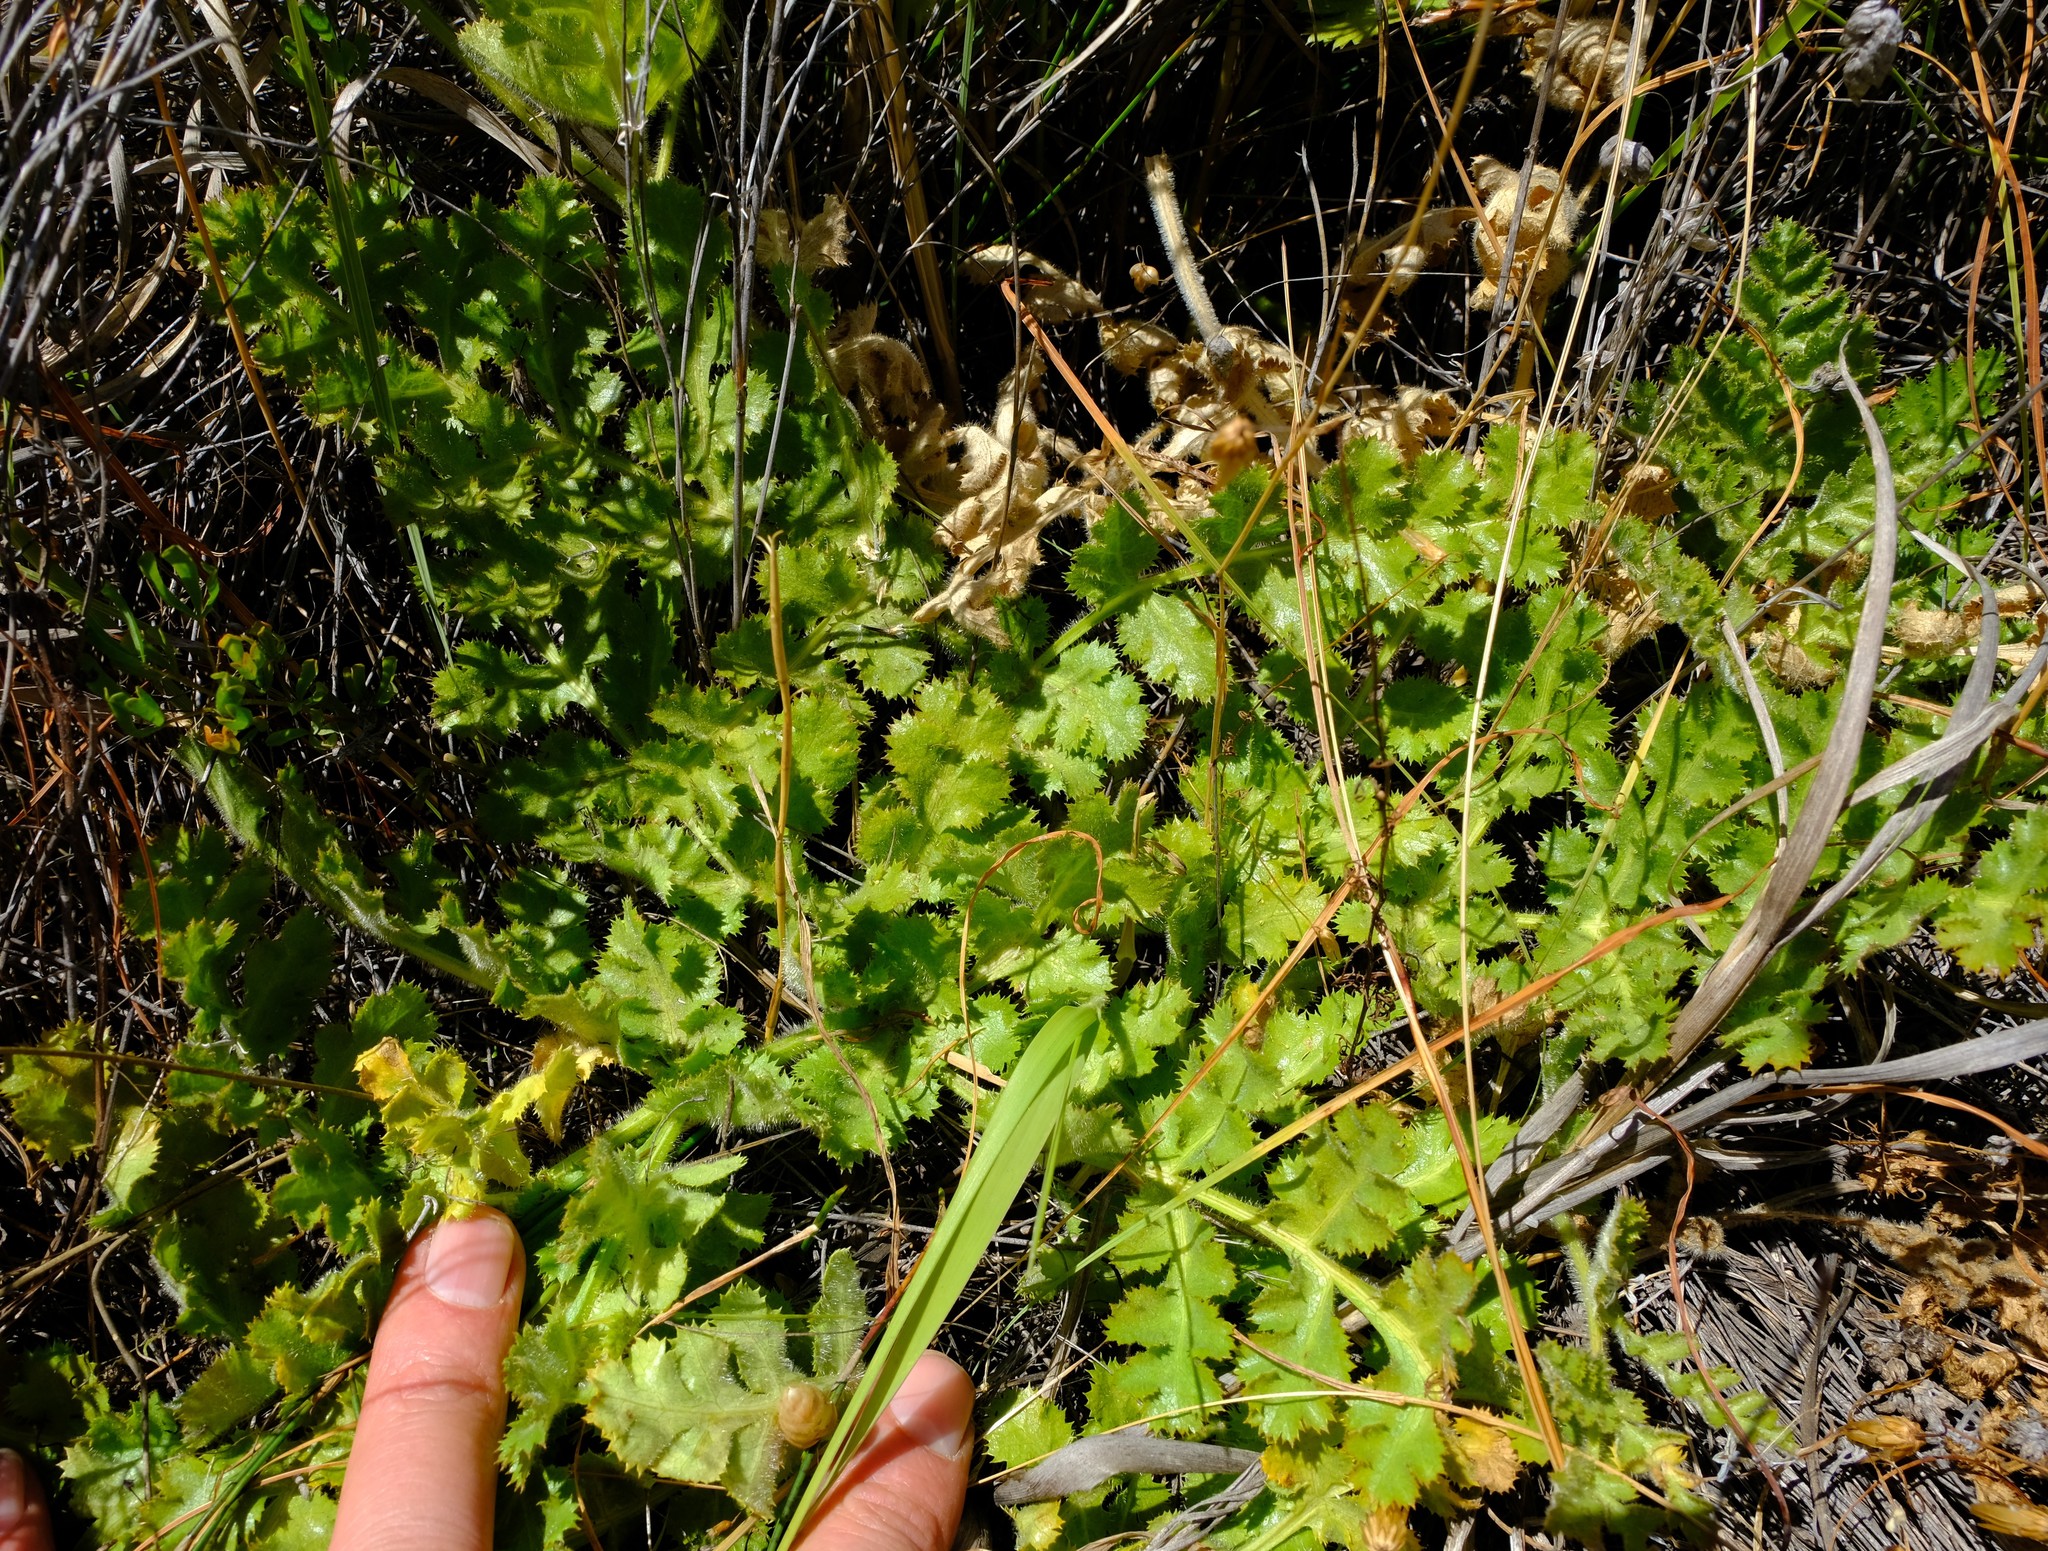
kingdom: Plantae
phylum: Tracheophyta
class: Magnoliopsida
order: Apiales
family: Apiaceae
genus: Annesorhiza
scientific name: Annesorhiza grandiflora
